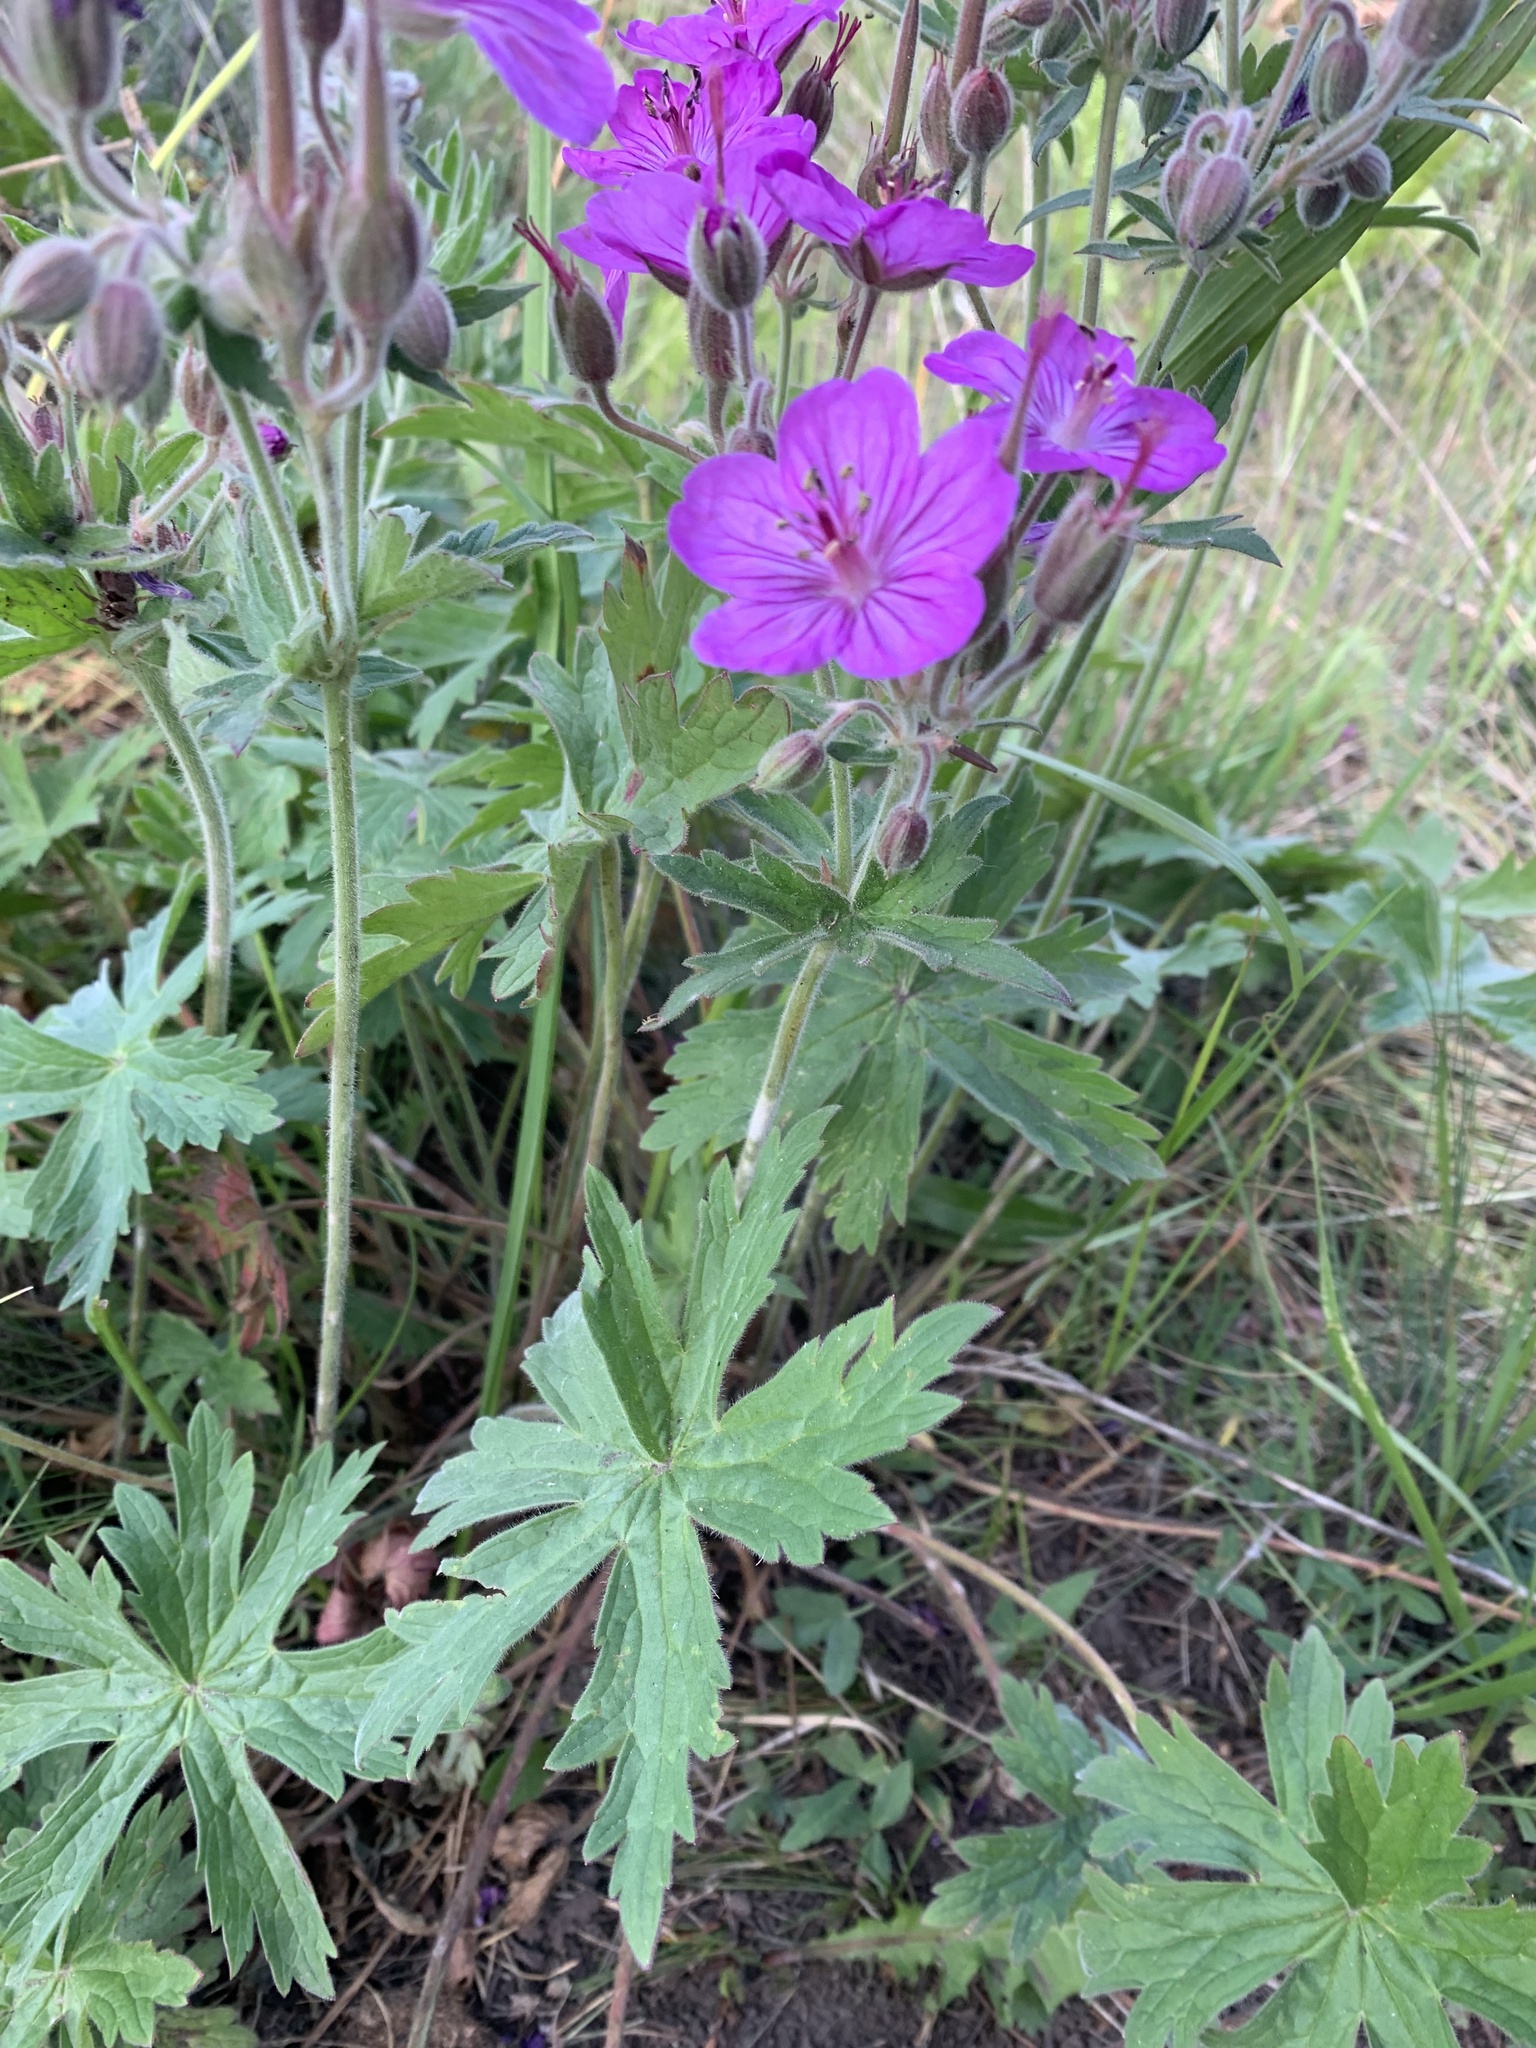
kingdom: Plantae
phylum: Tracheophyta
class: Magnoliopsida
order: Geraniales
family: Geraniaceae
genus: Geranium
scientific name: Geranium viscosissimum
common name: Purple geranium
